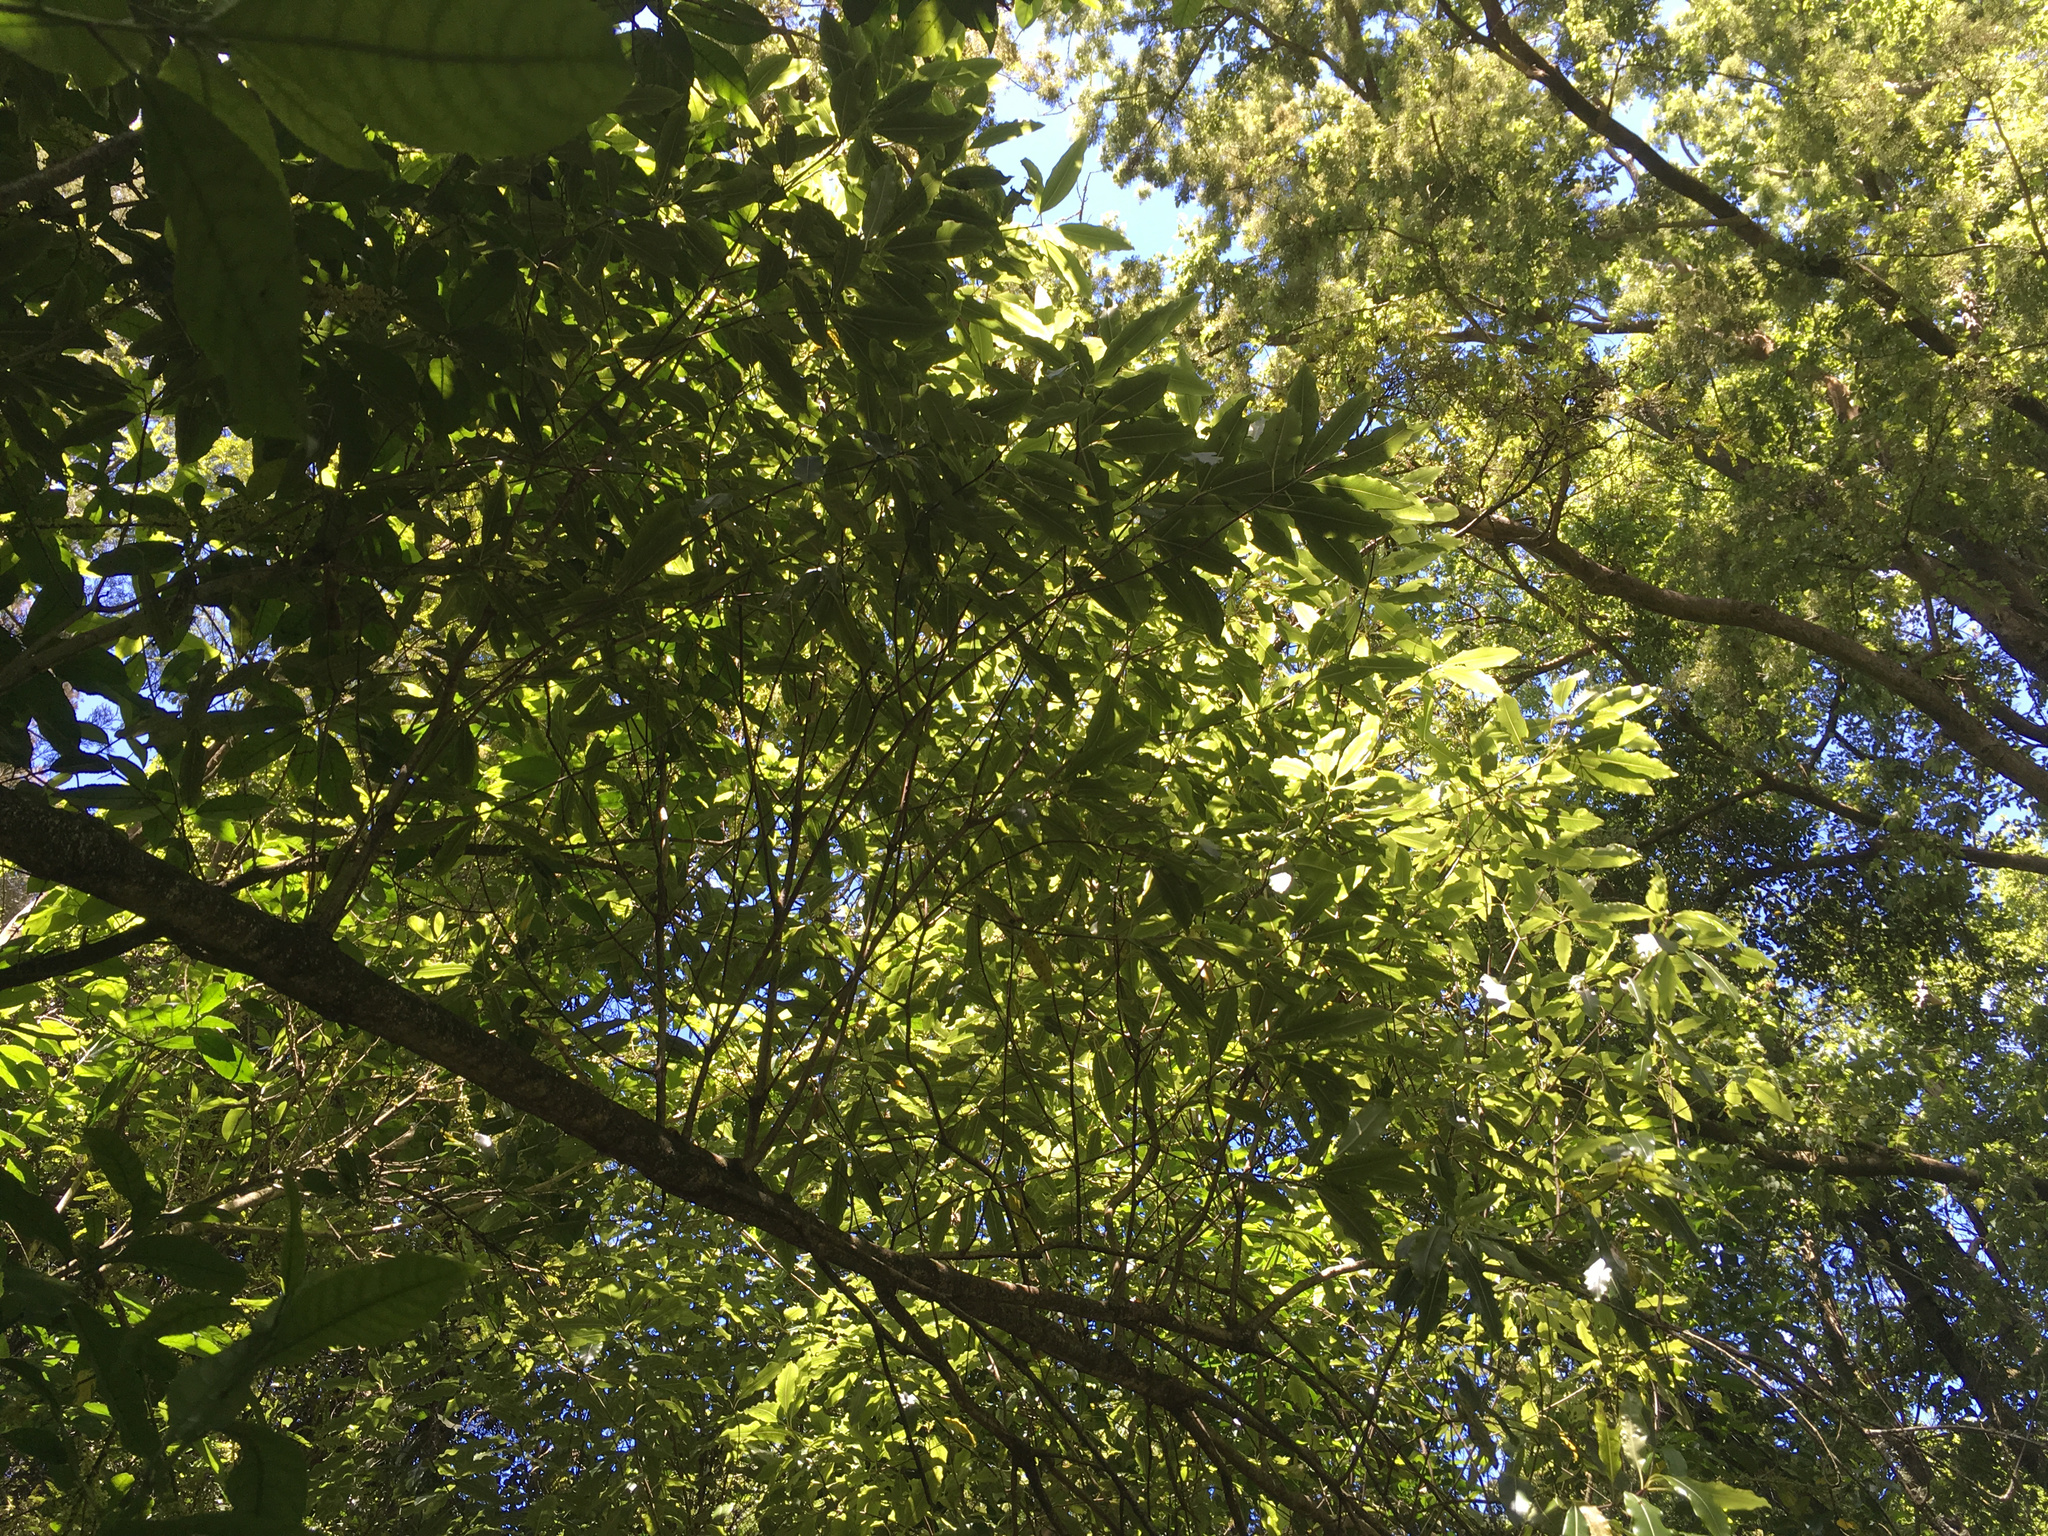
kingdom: Plantae
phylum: Tracheophyta
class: Magnoliopsida
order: Apiales
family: Pittosporaceae
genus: Pittosporum
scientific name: Pittosporum eugenioides
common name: Lemonwood
